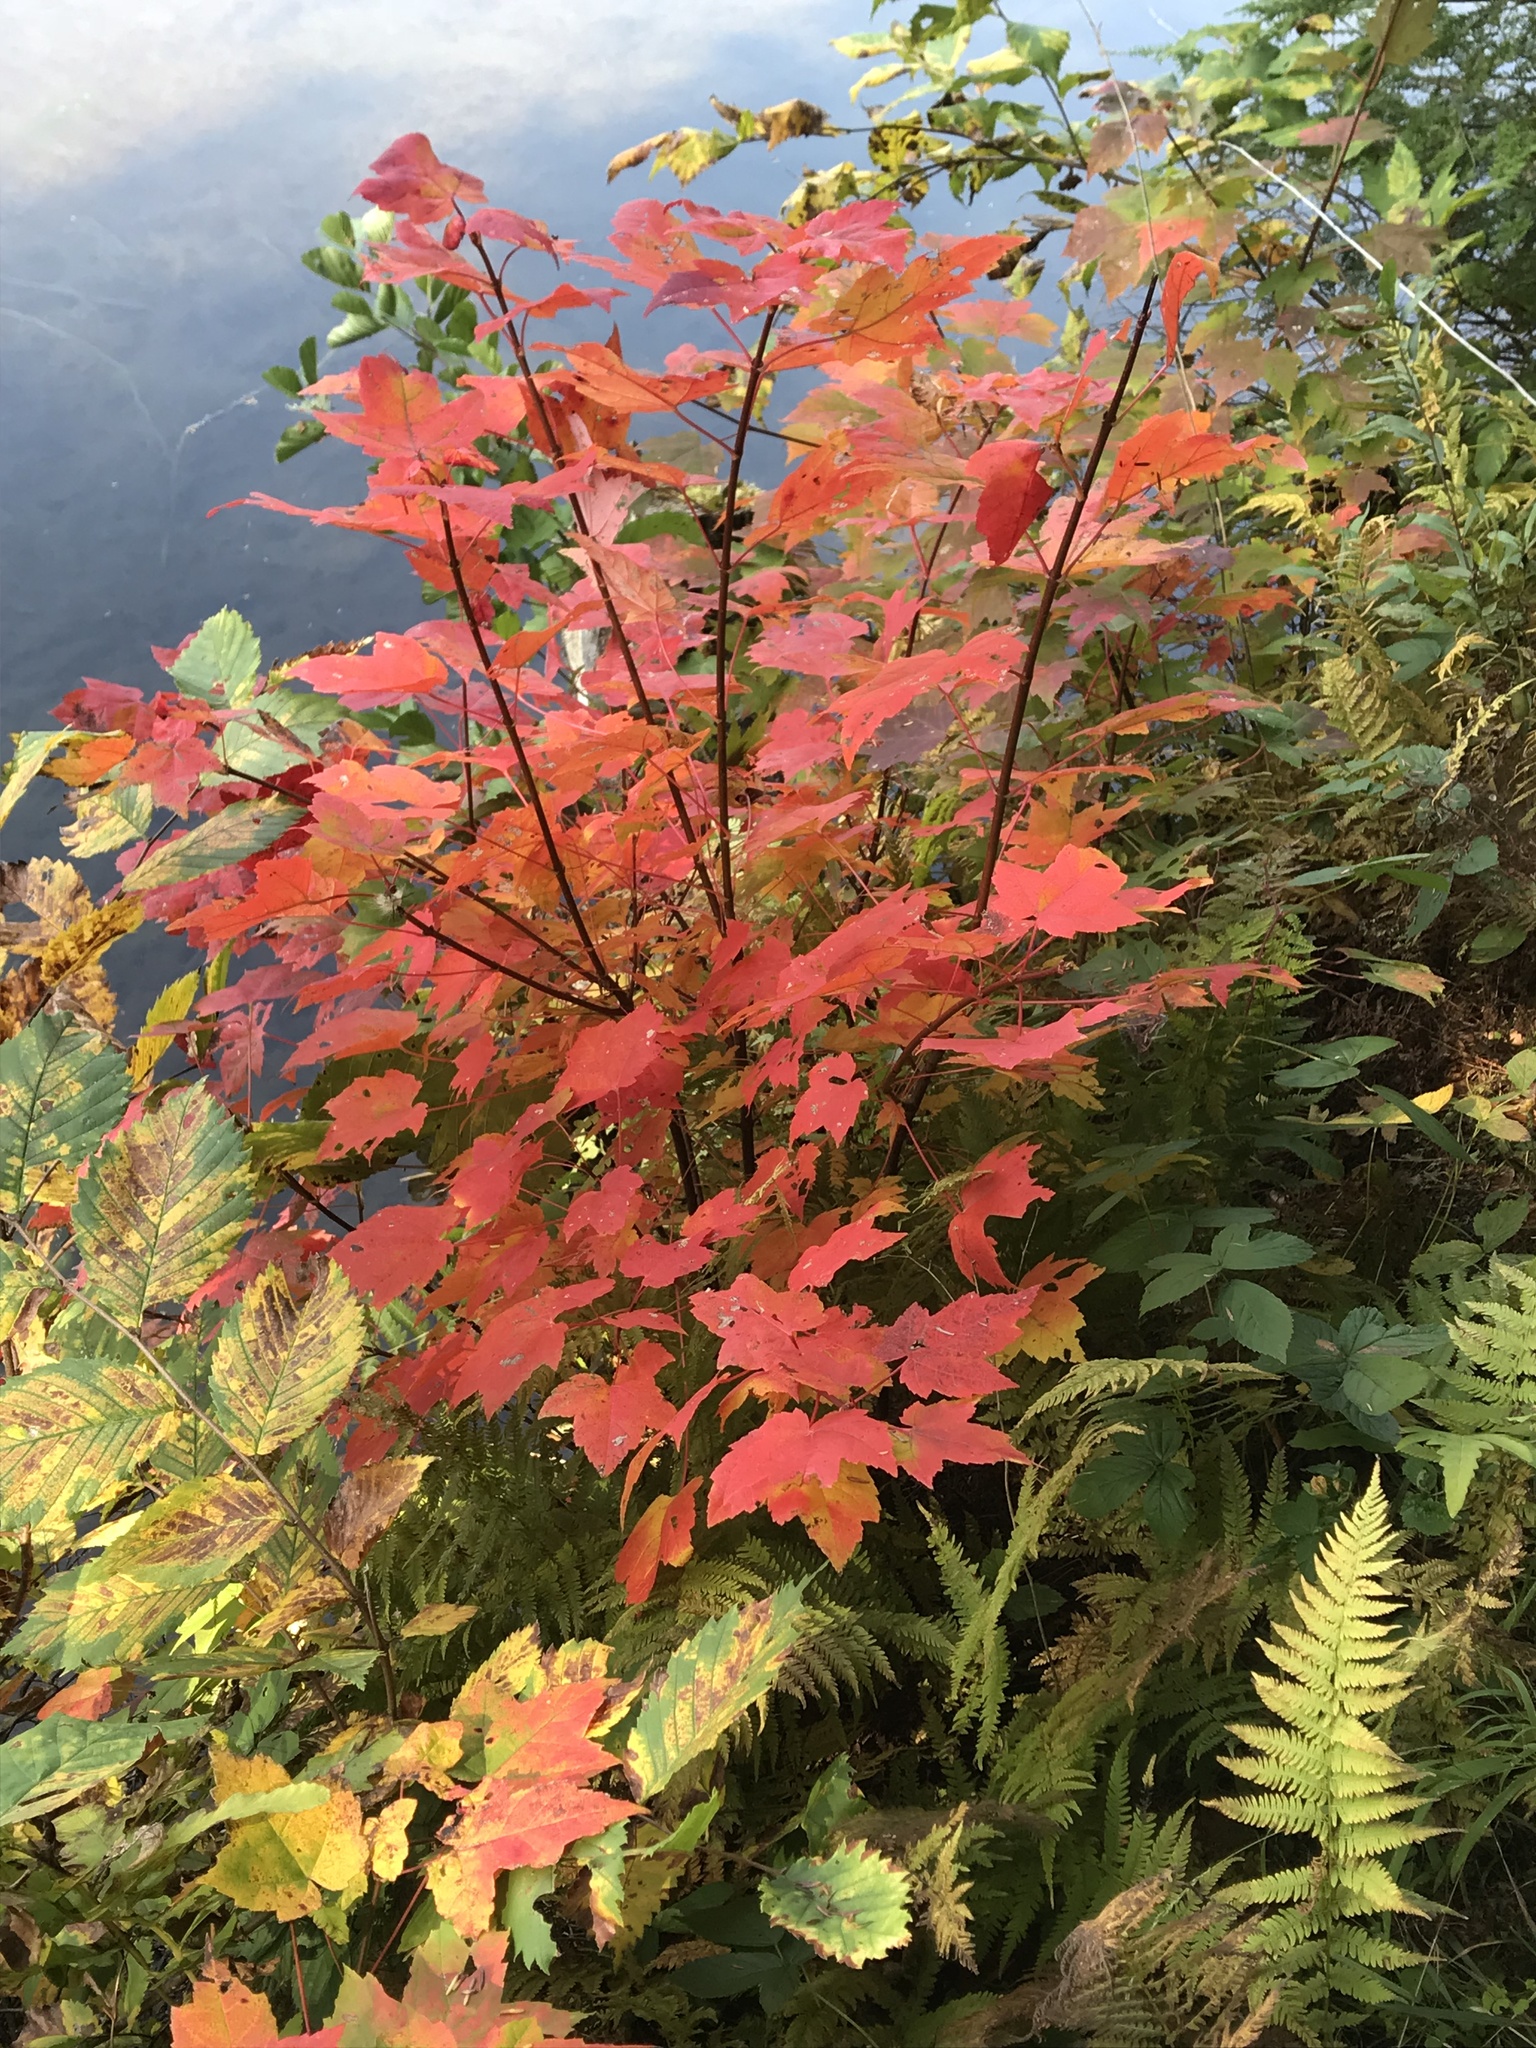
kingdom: Plantae
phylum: Tracheophyta
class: Magnoliopsida
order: Sapindales
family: Sapindaceae
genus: Acer
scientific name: Acer rubrum
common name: Red maple
